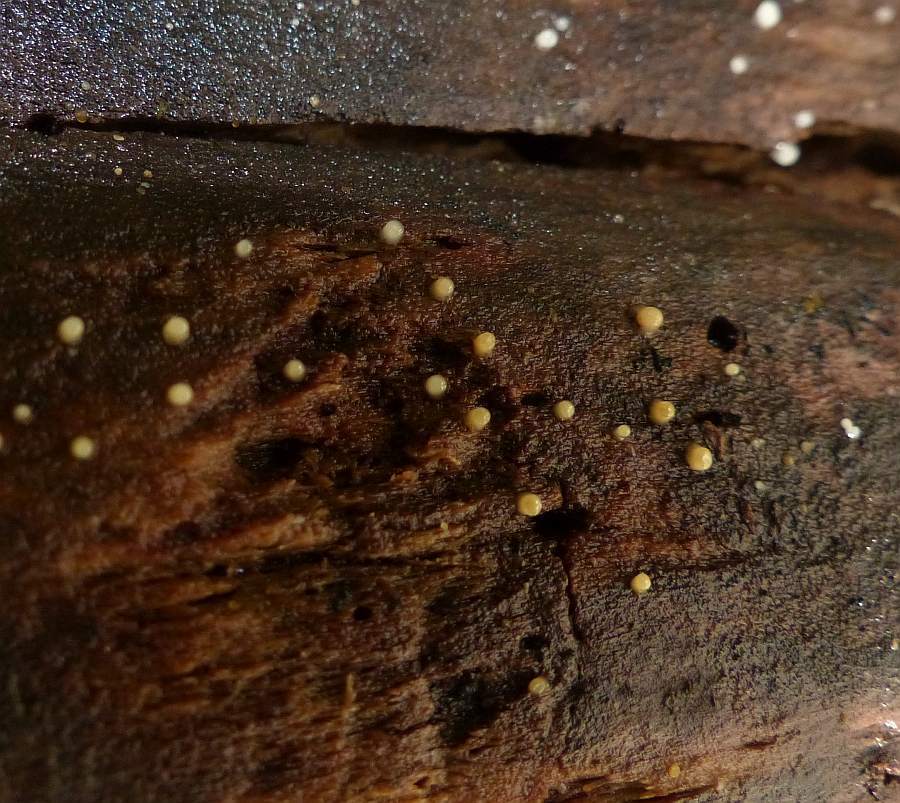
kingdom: Fungi
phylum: Basidiomycota
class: Atractiellomycetes
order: Atractiellales
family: Phleogenaceae
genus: Helicogloea
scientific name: Helicogloea compressa
